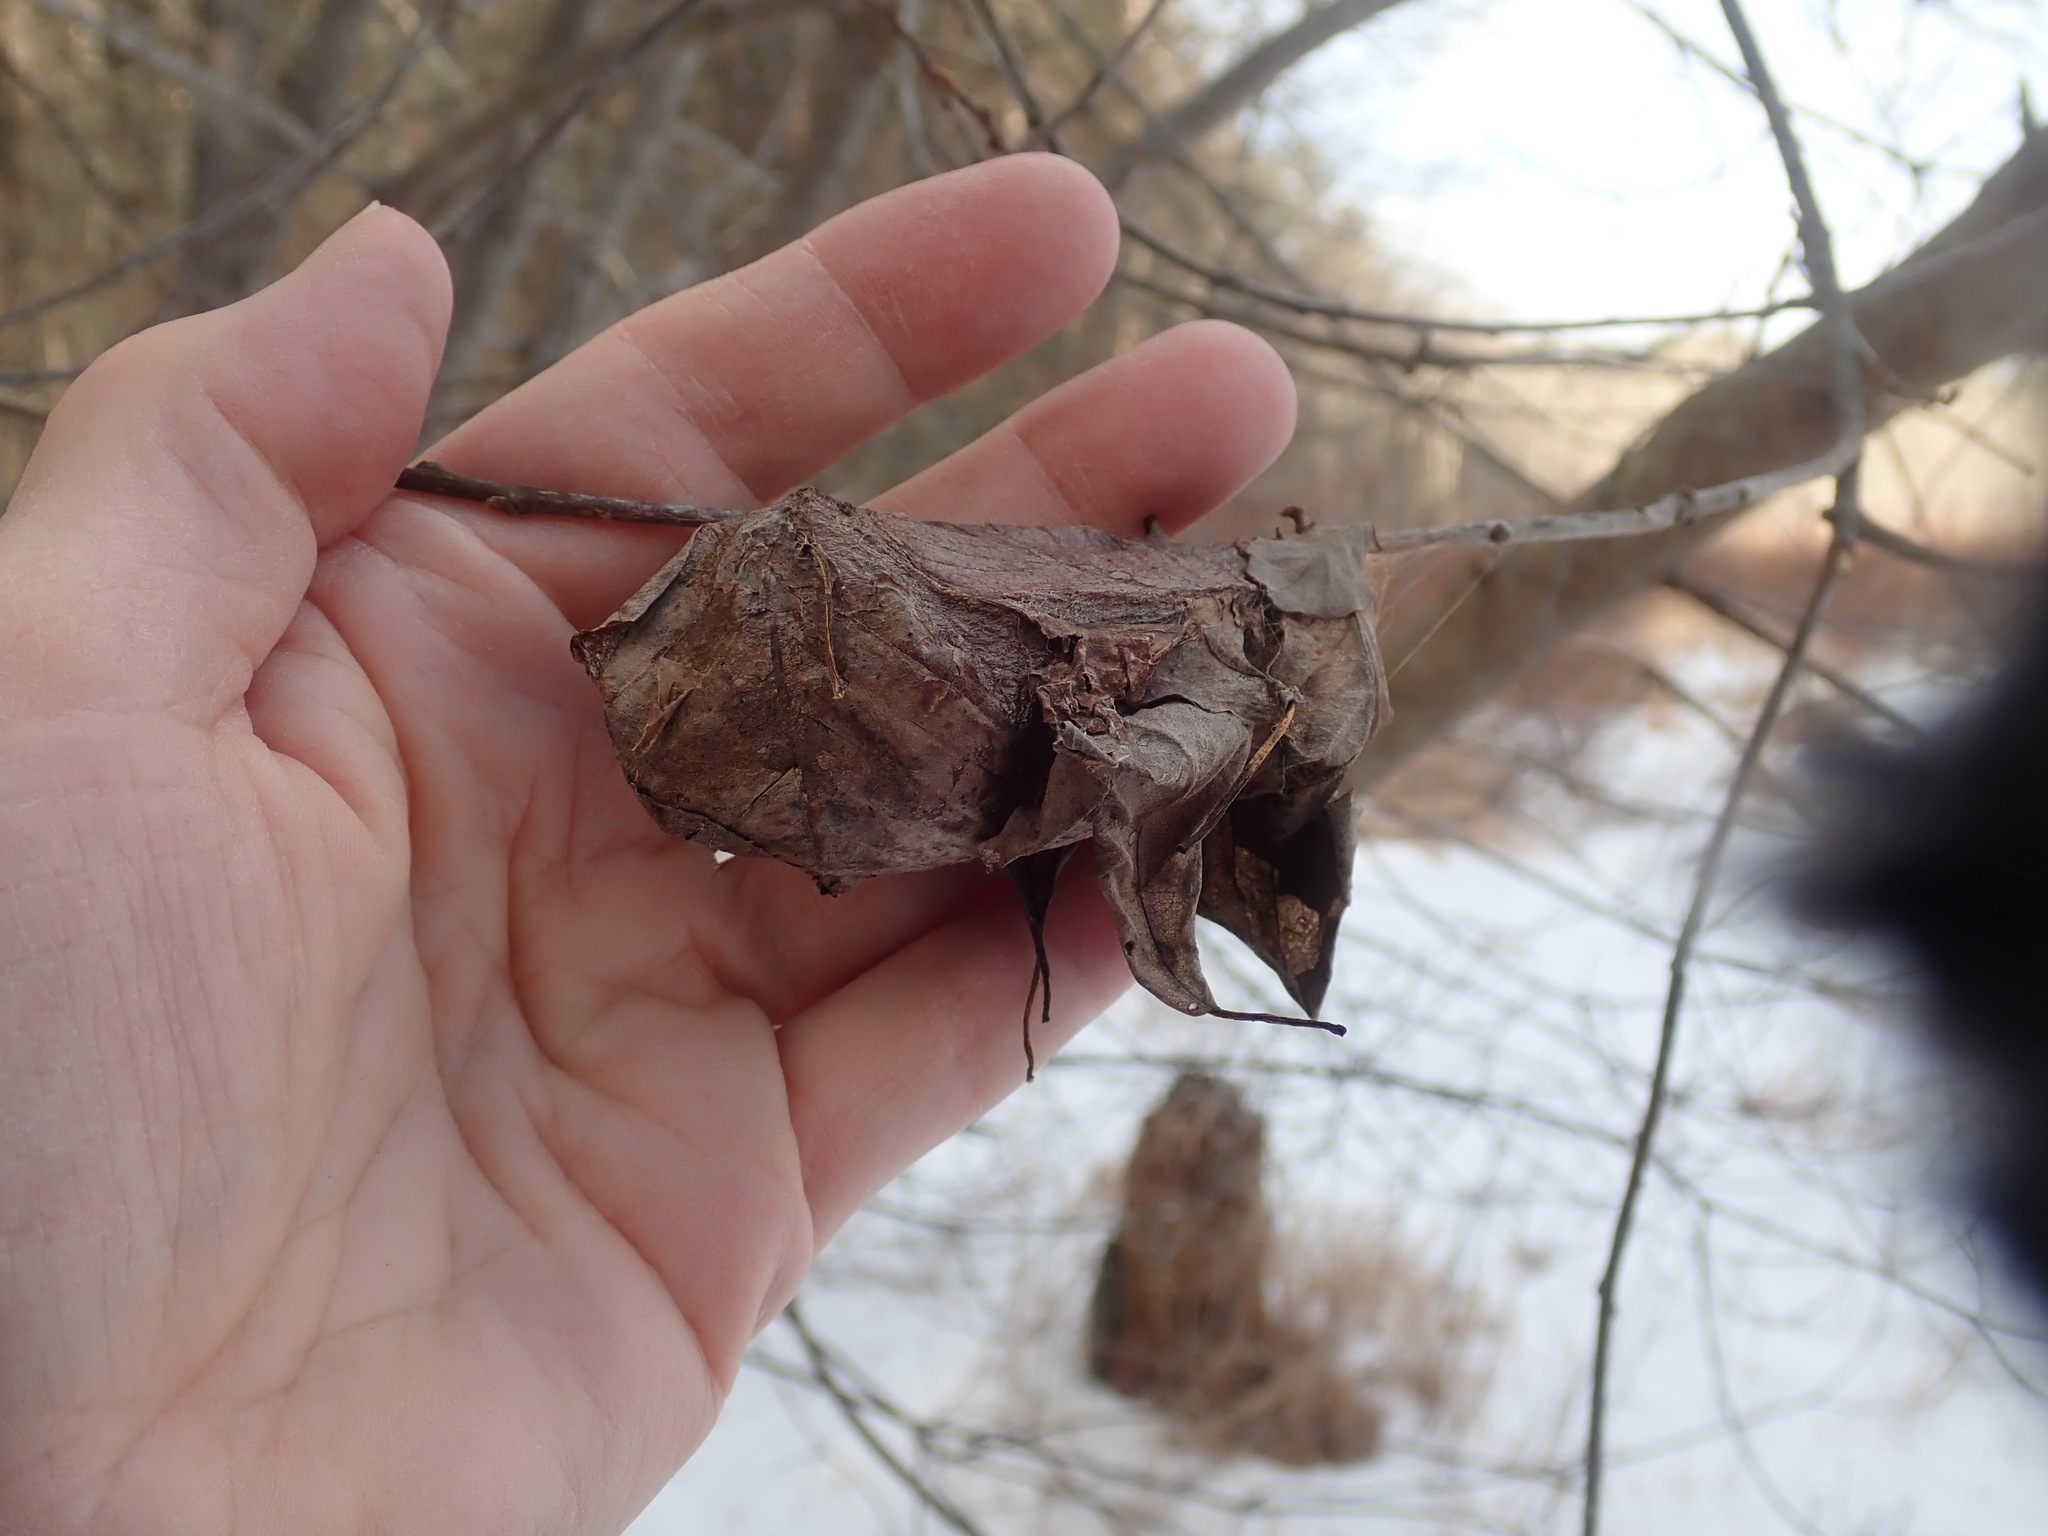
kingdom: Animalia
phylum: Arthropoda
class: Insecta
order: Lepidoptera
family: Saturniidae
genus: Hyalophora
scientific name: Hyalophora cecropia
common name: Cecropia silkmoth
